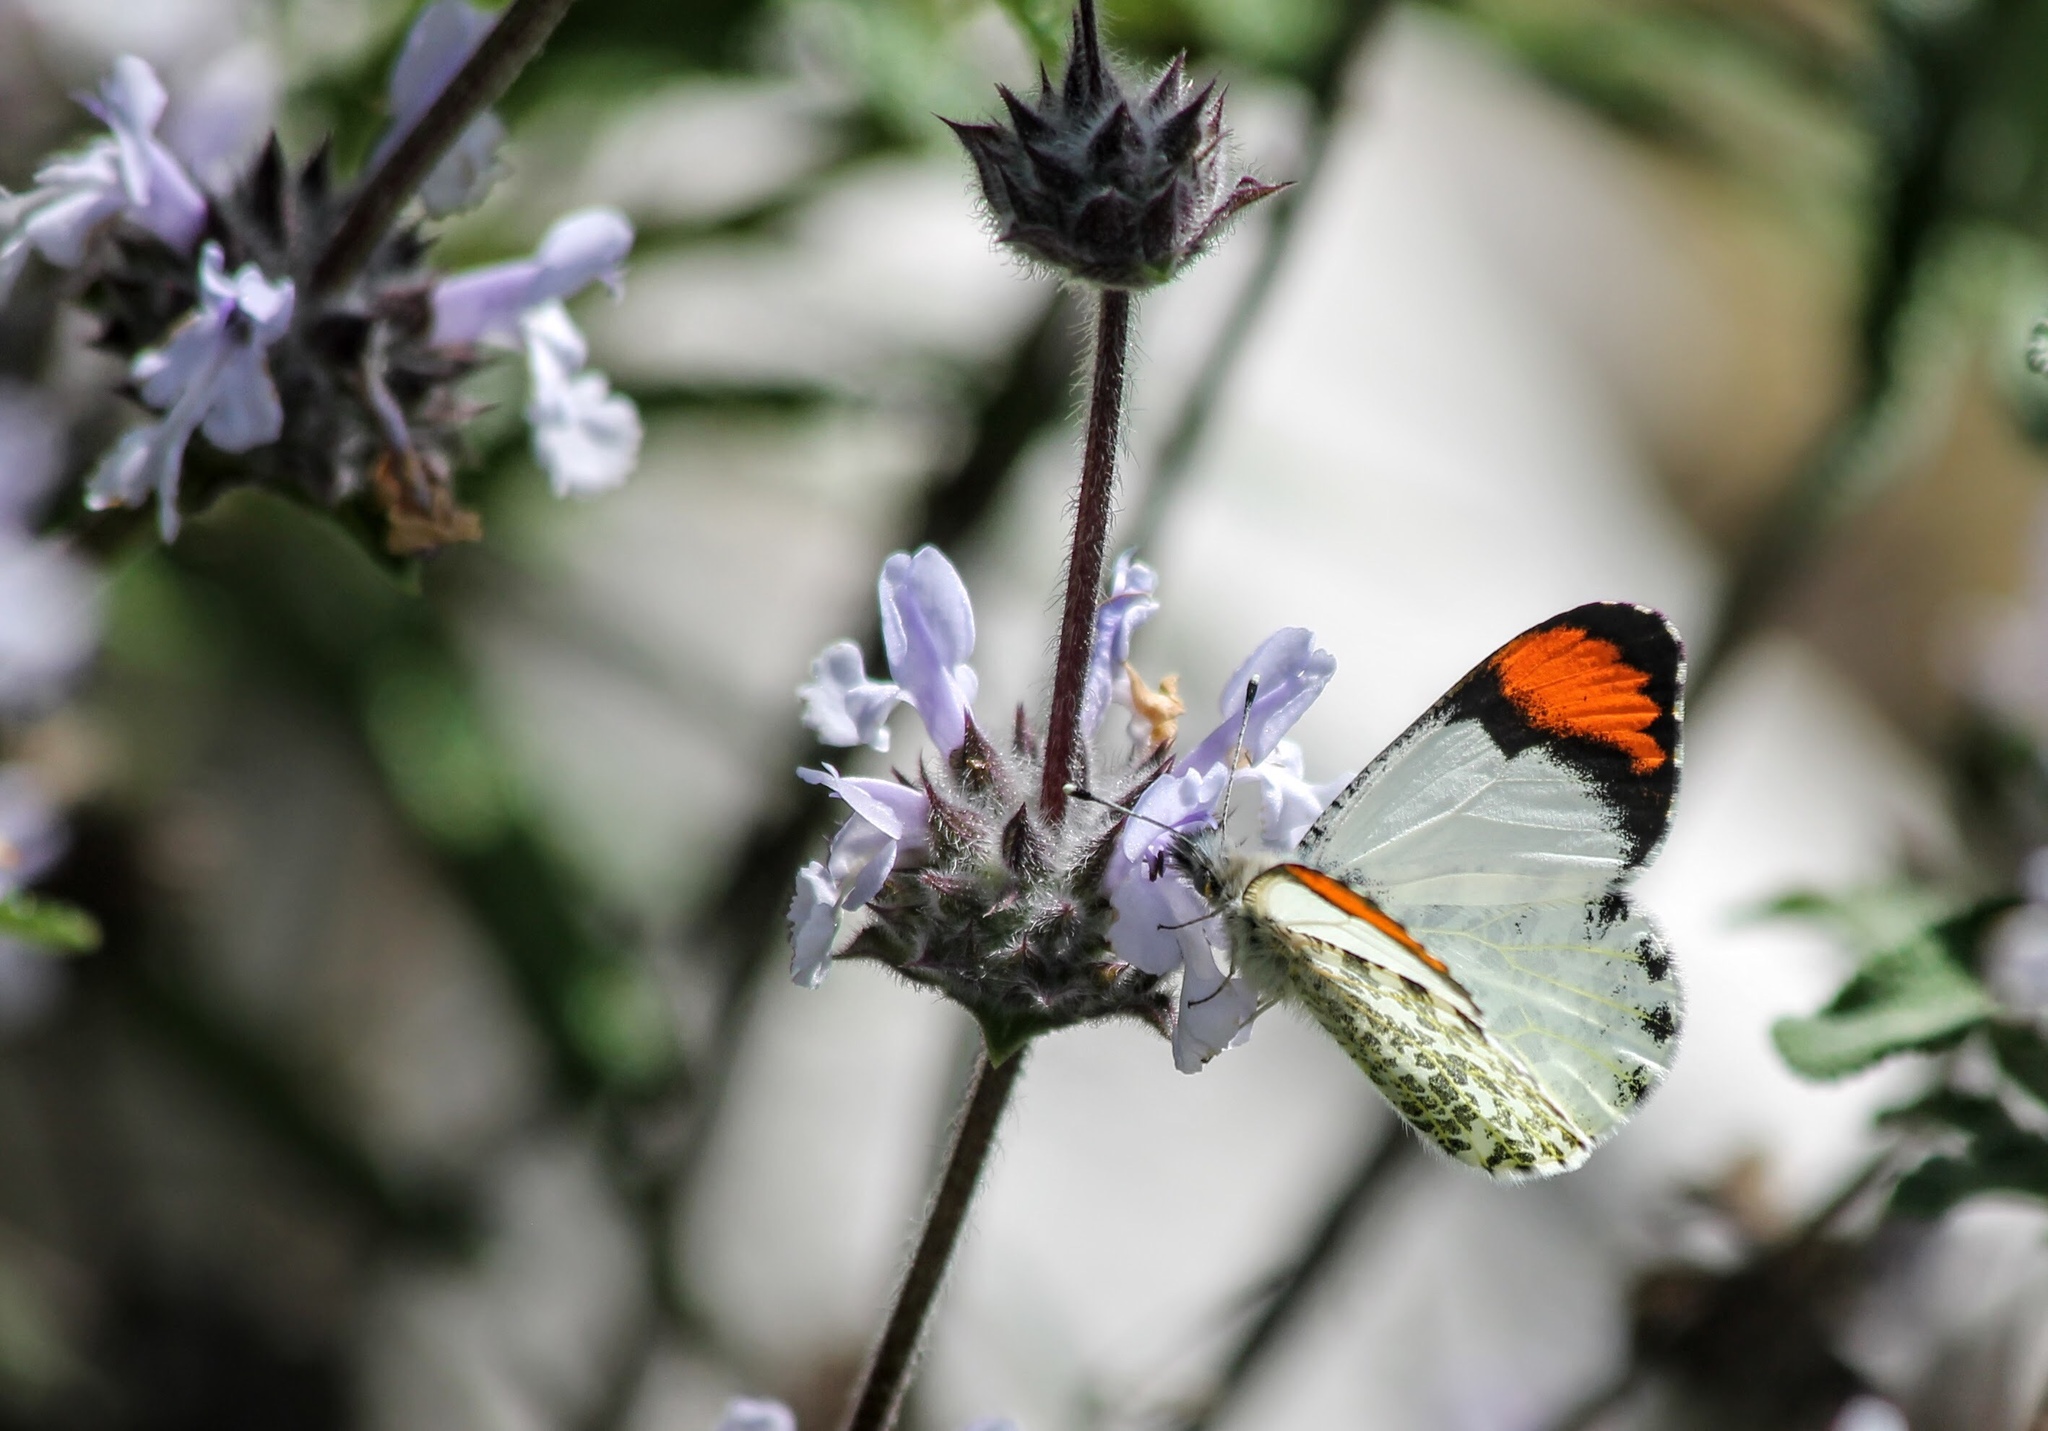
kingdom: Animalia
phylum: Arthropoda
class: Insecta
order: Lepidoptera
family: Pieridae
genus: Anthocharis
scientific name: Anthocharis sara
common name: Sara's orangetip
